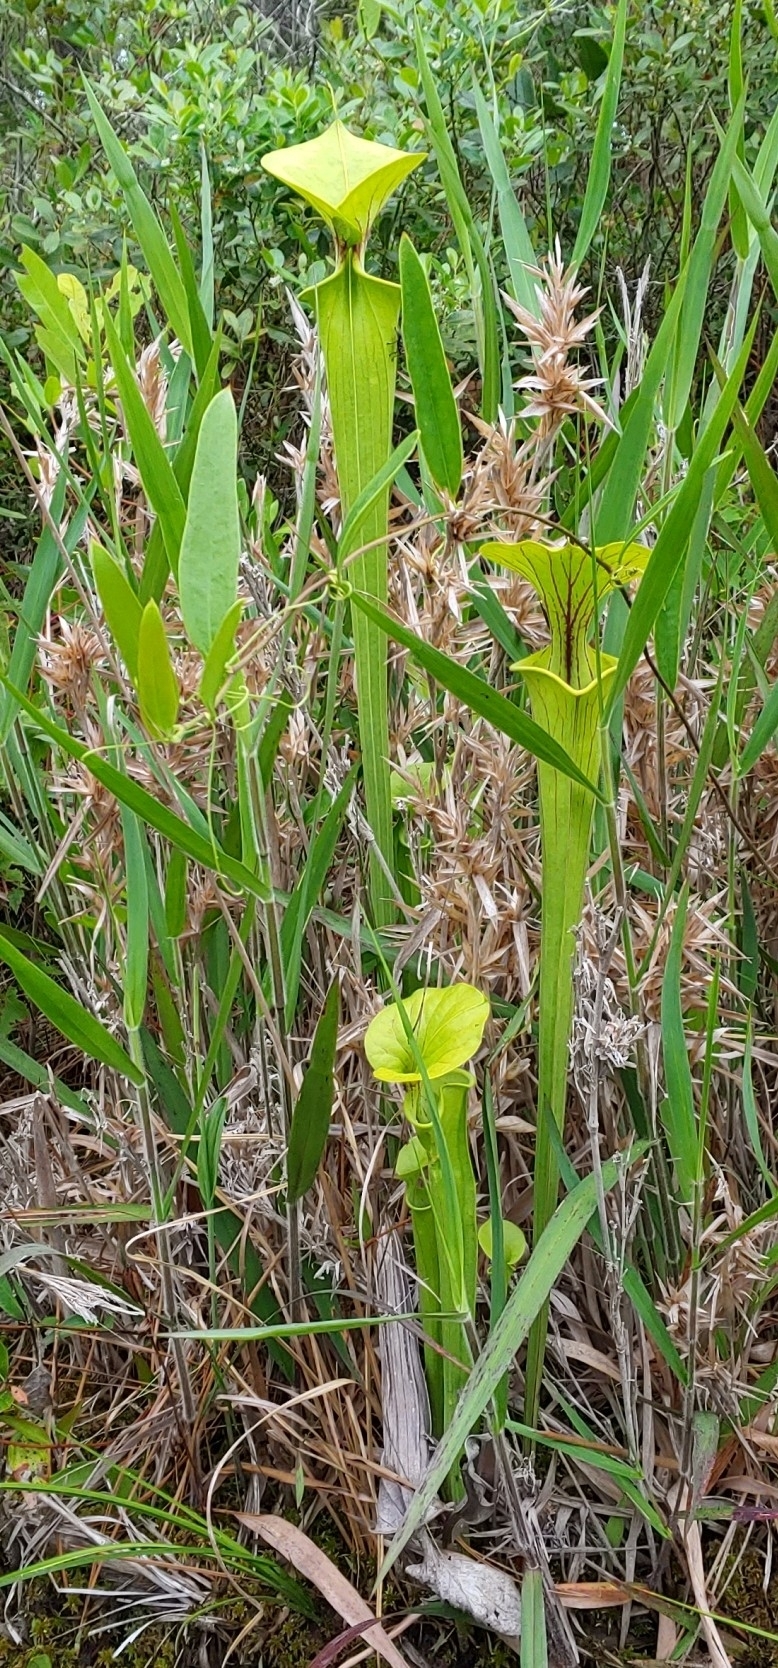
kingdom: Plantae
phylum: Tracheophyta
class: Magnoliopsida
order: Ericales
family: Sarraceniaceae
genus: Sarracenia
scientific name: Sarracenia flava
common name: Trumpets
